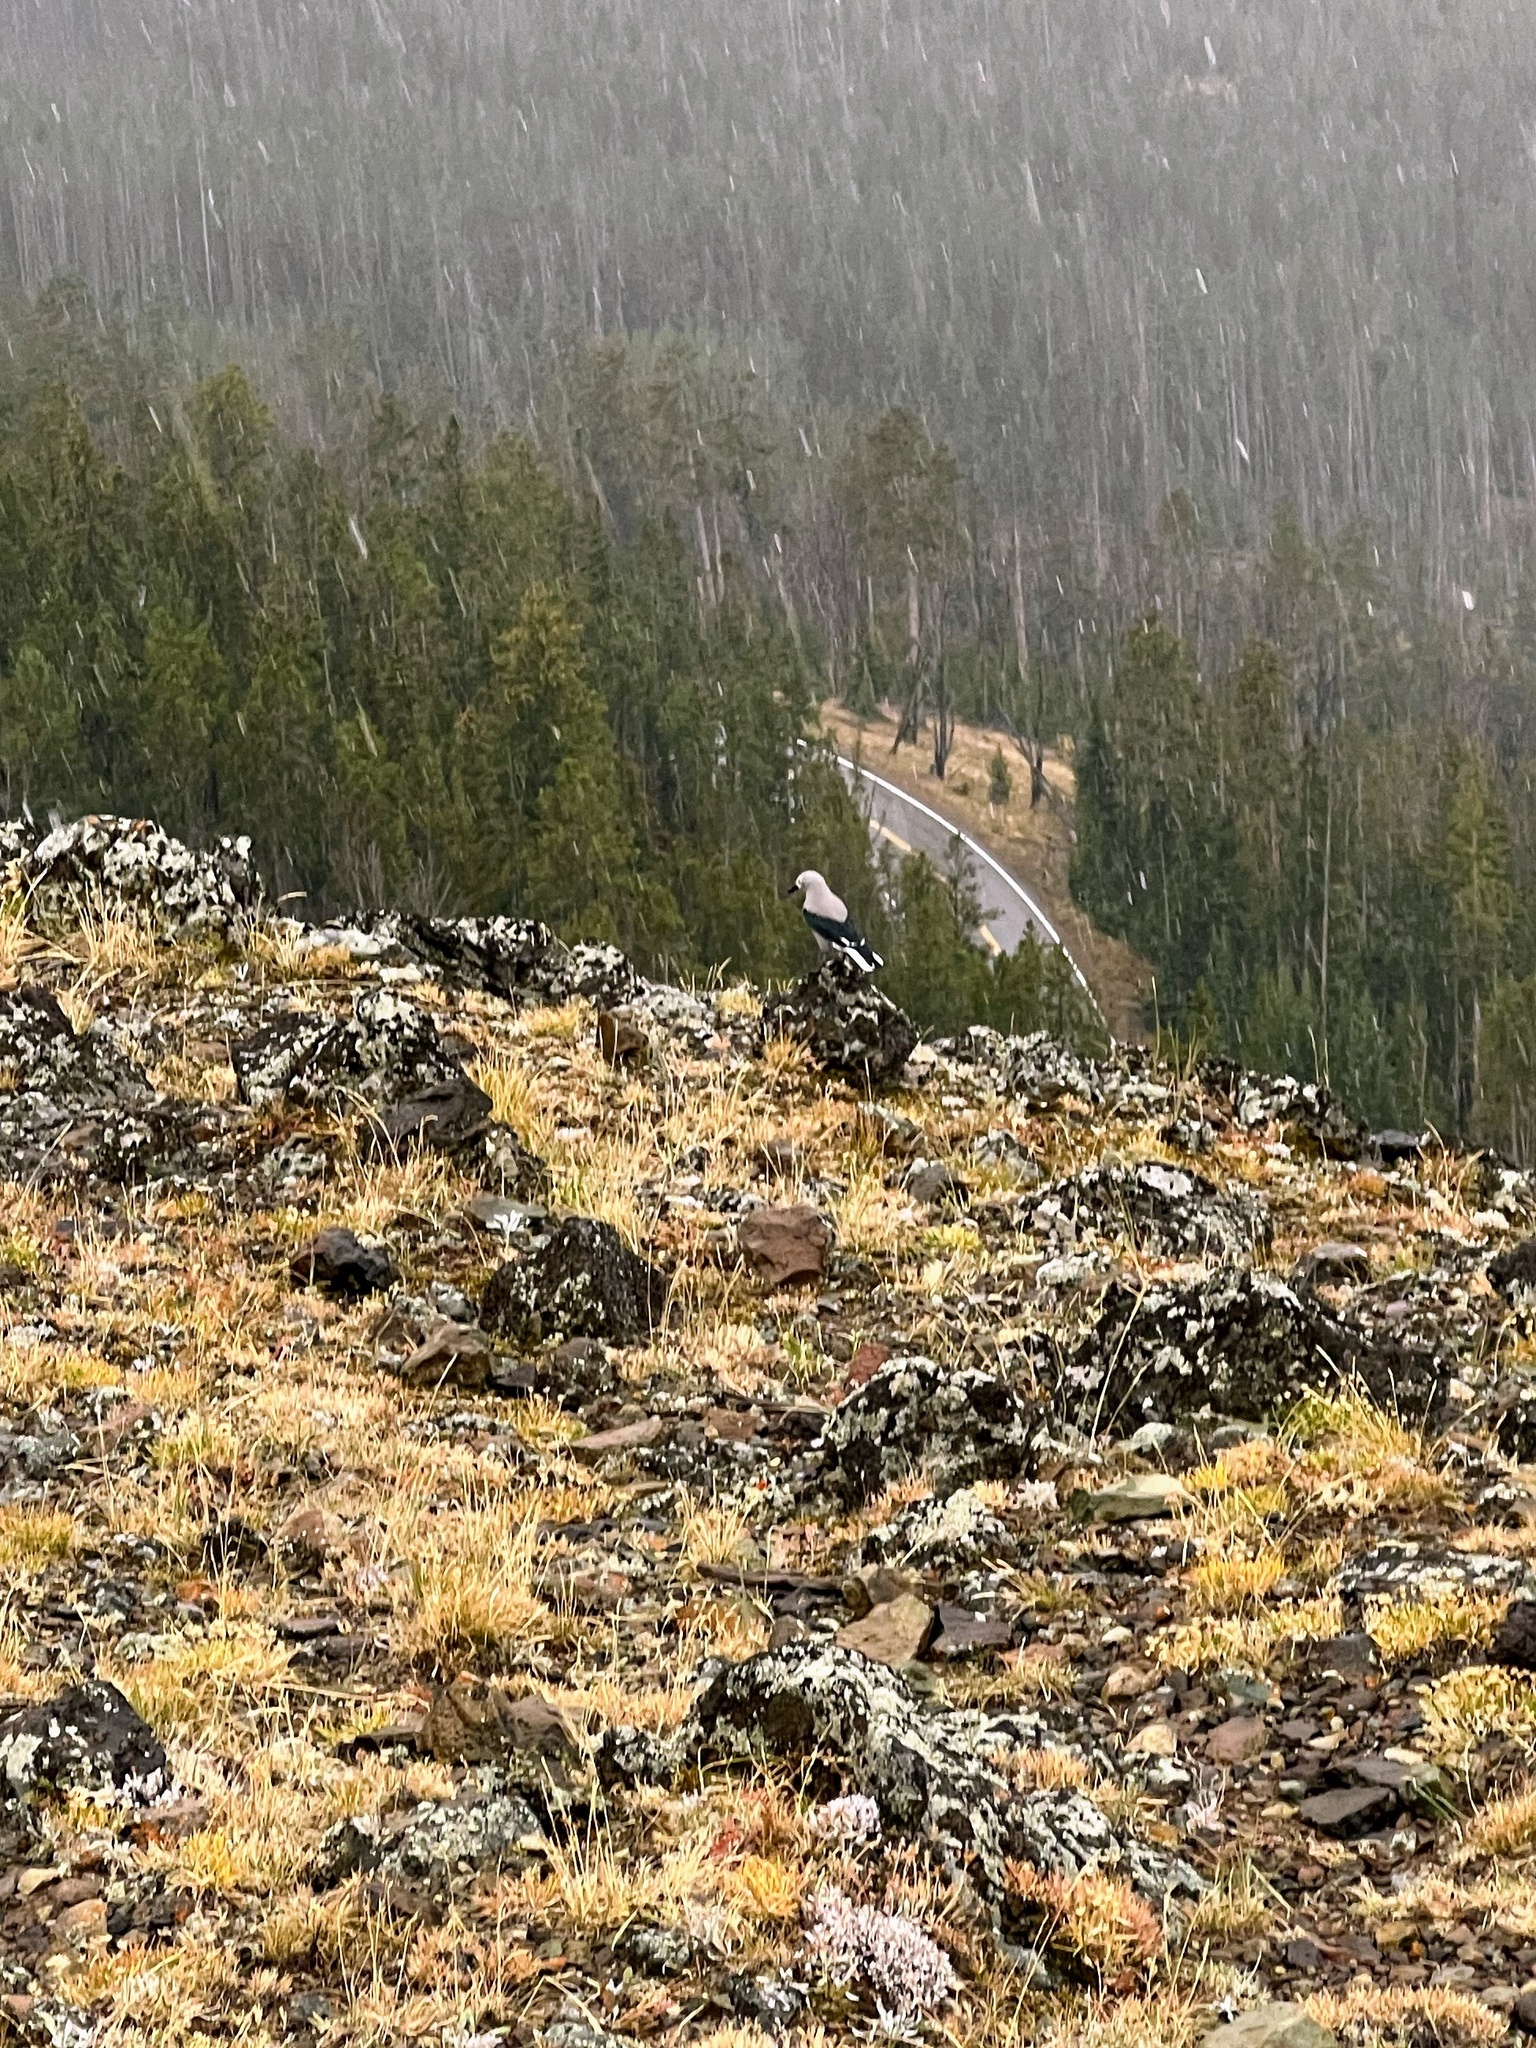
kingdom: Animalia
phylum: Chordata
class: Aves
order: Passeriformes
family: Corvidae
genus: Nucifraga
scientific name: Nucifraga columbiana
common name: Clark's nutcracker
